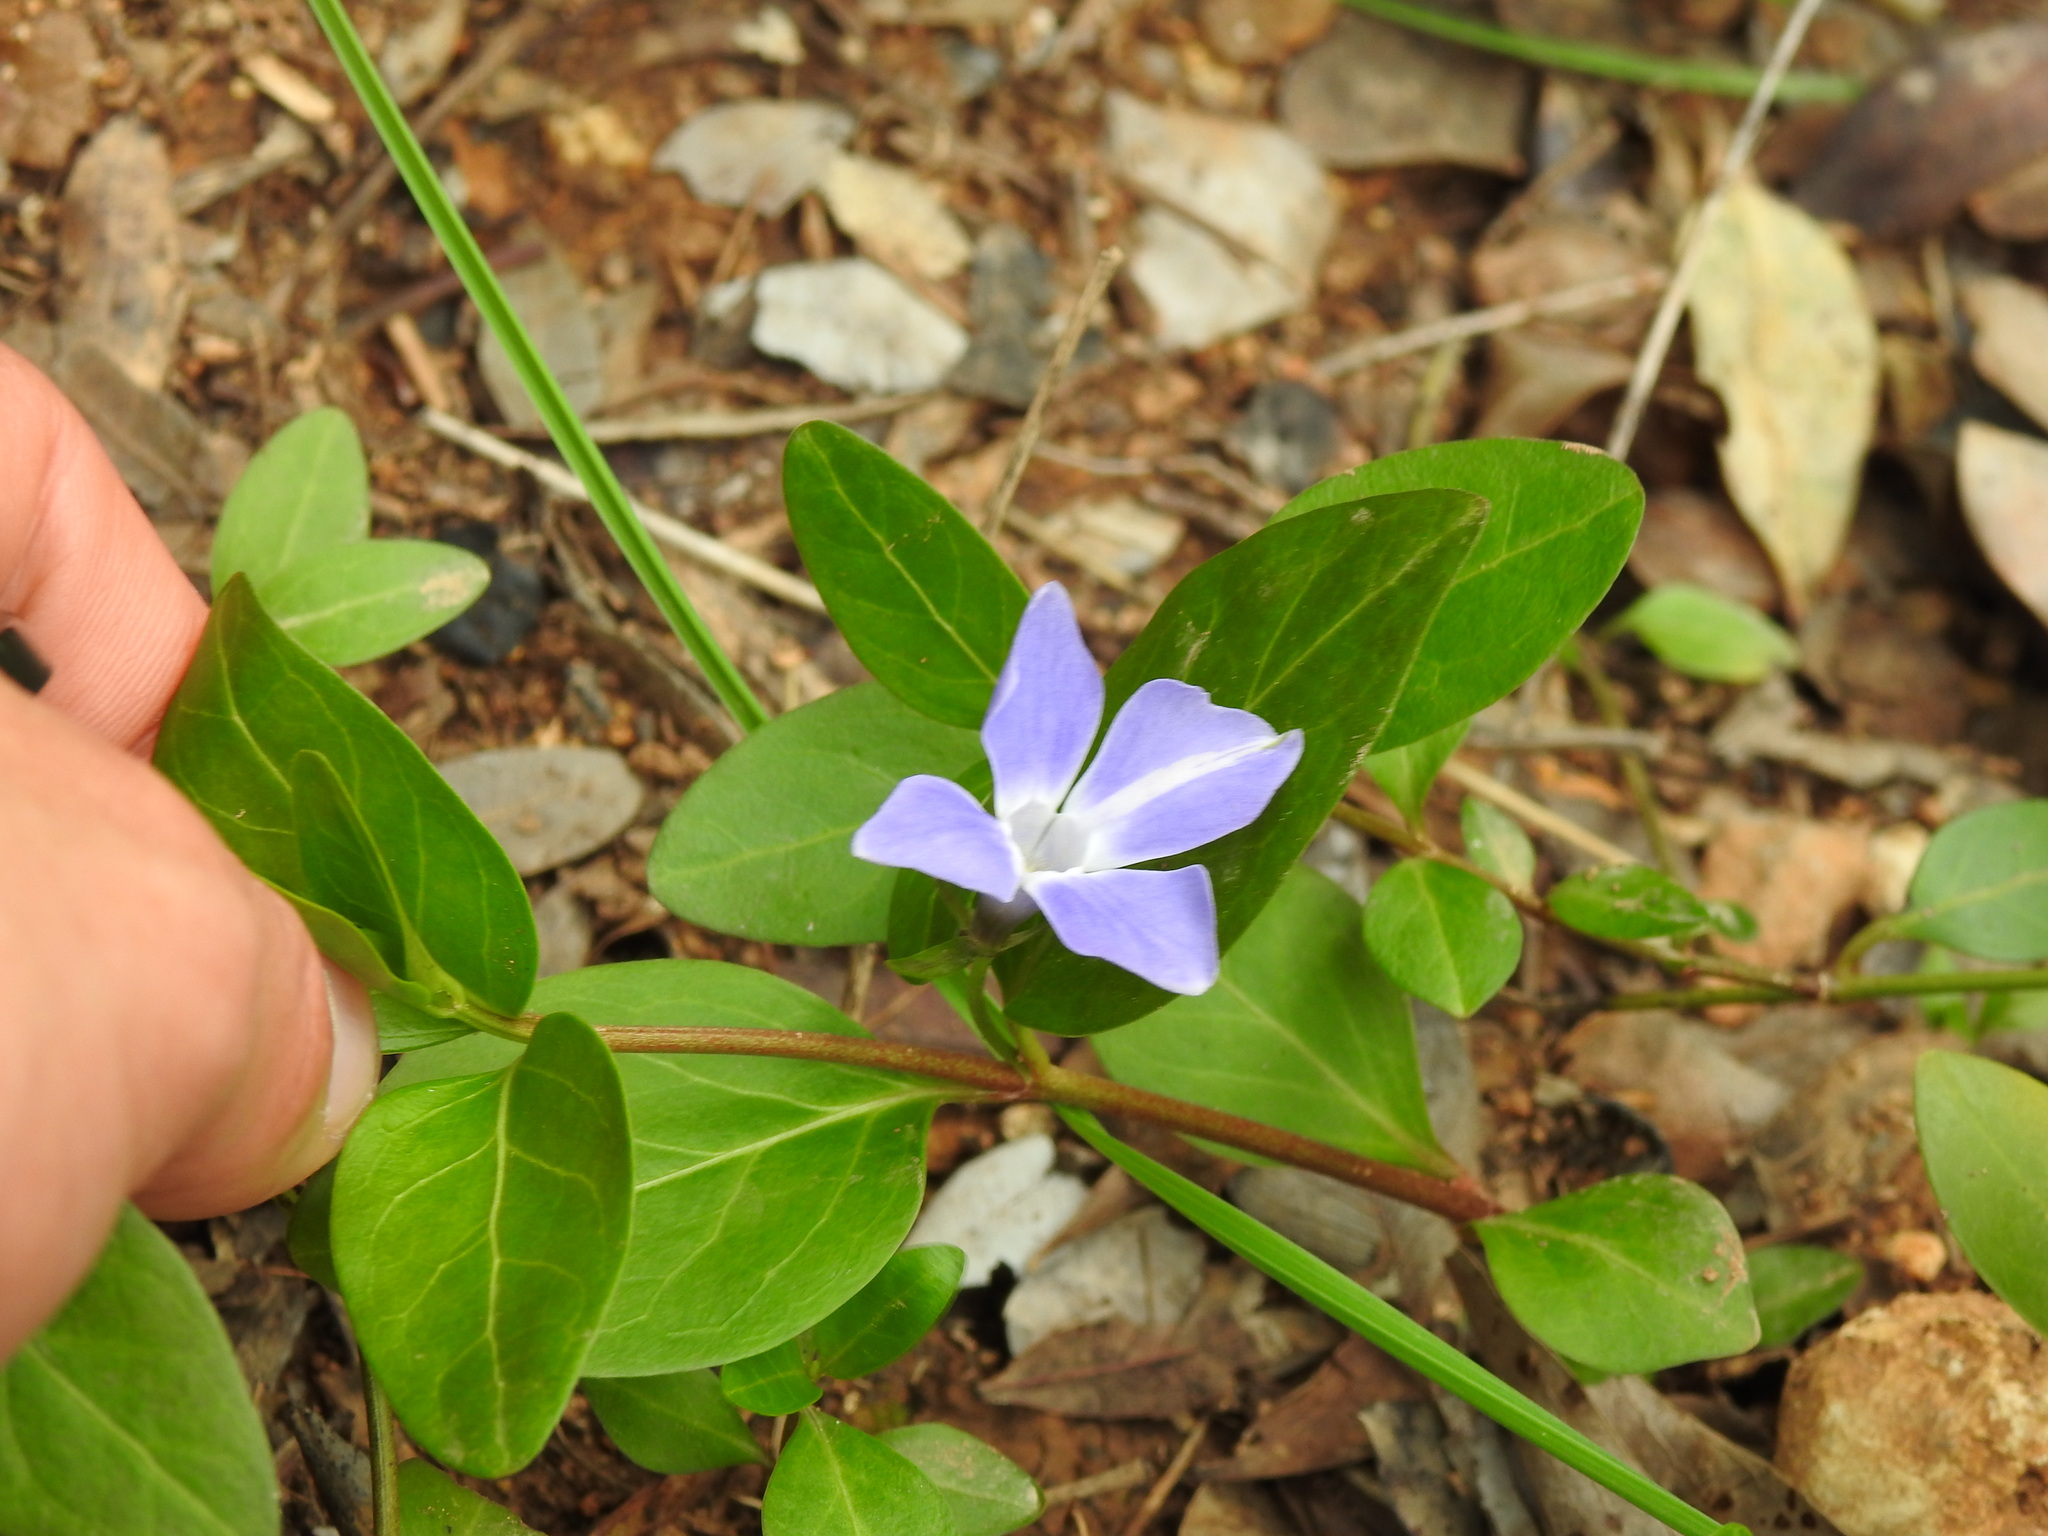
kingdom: Plantae
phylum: Tracheophyta
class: Magnoliopsida
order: Gentianales
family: Apocynaceae
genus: Vinca
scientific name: Vinca difformis
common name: Intermediate periwinkle
